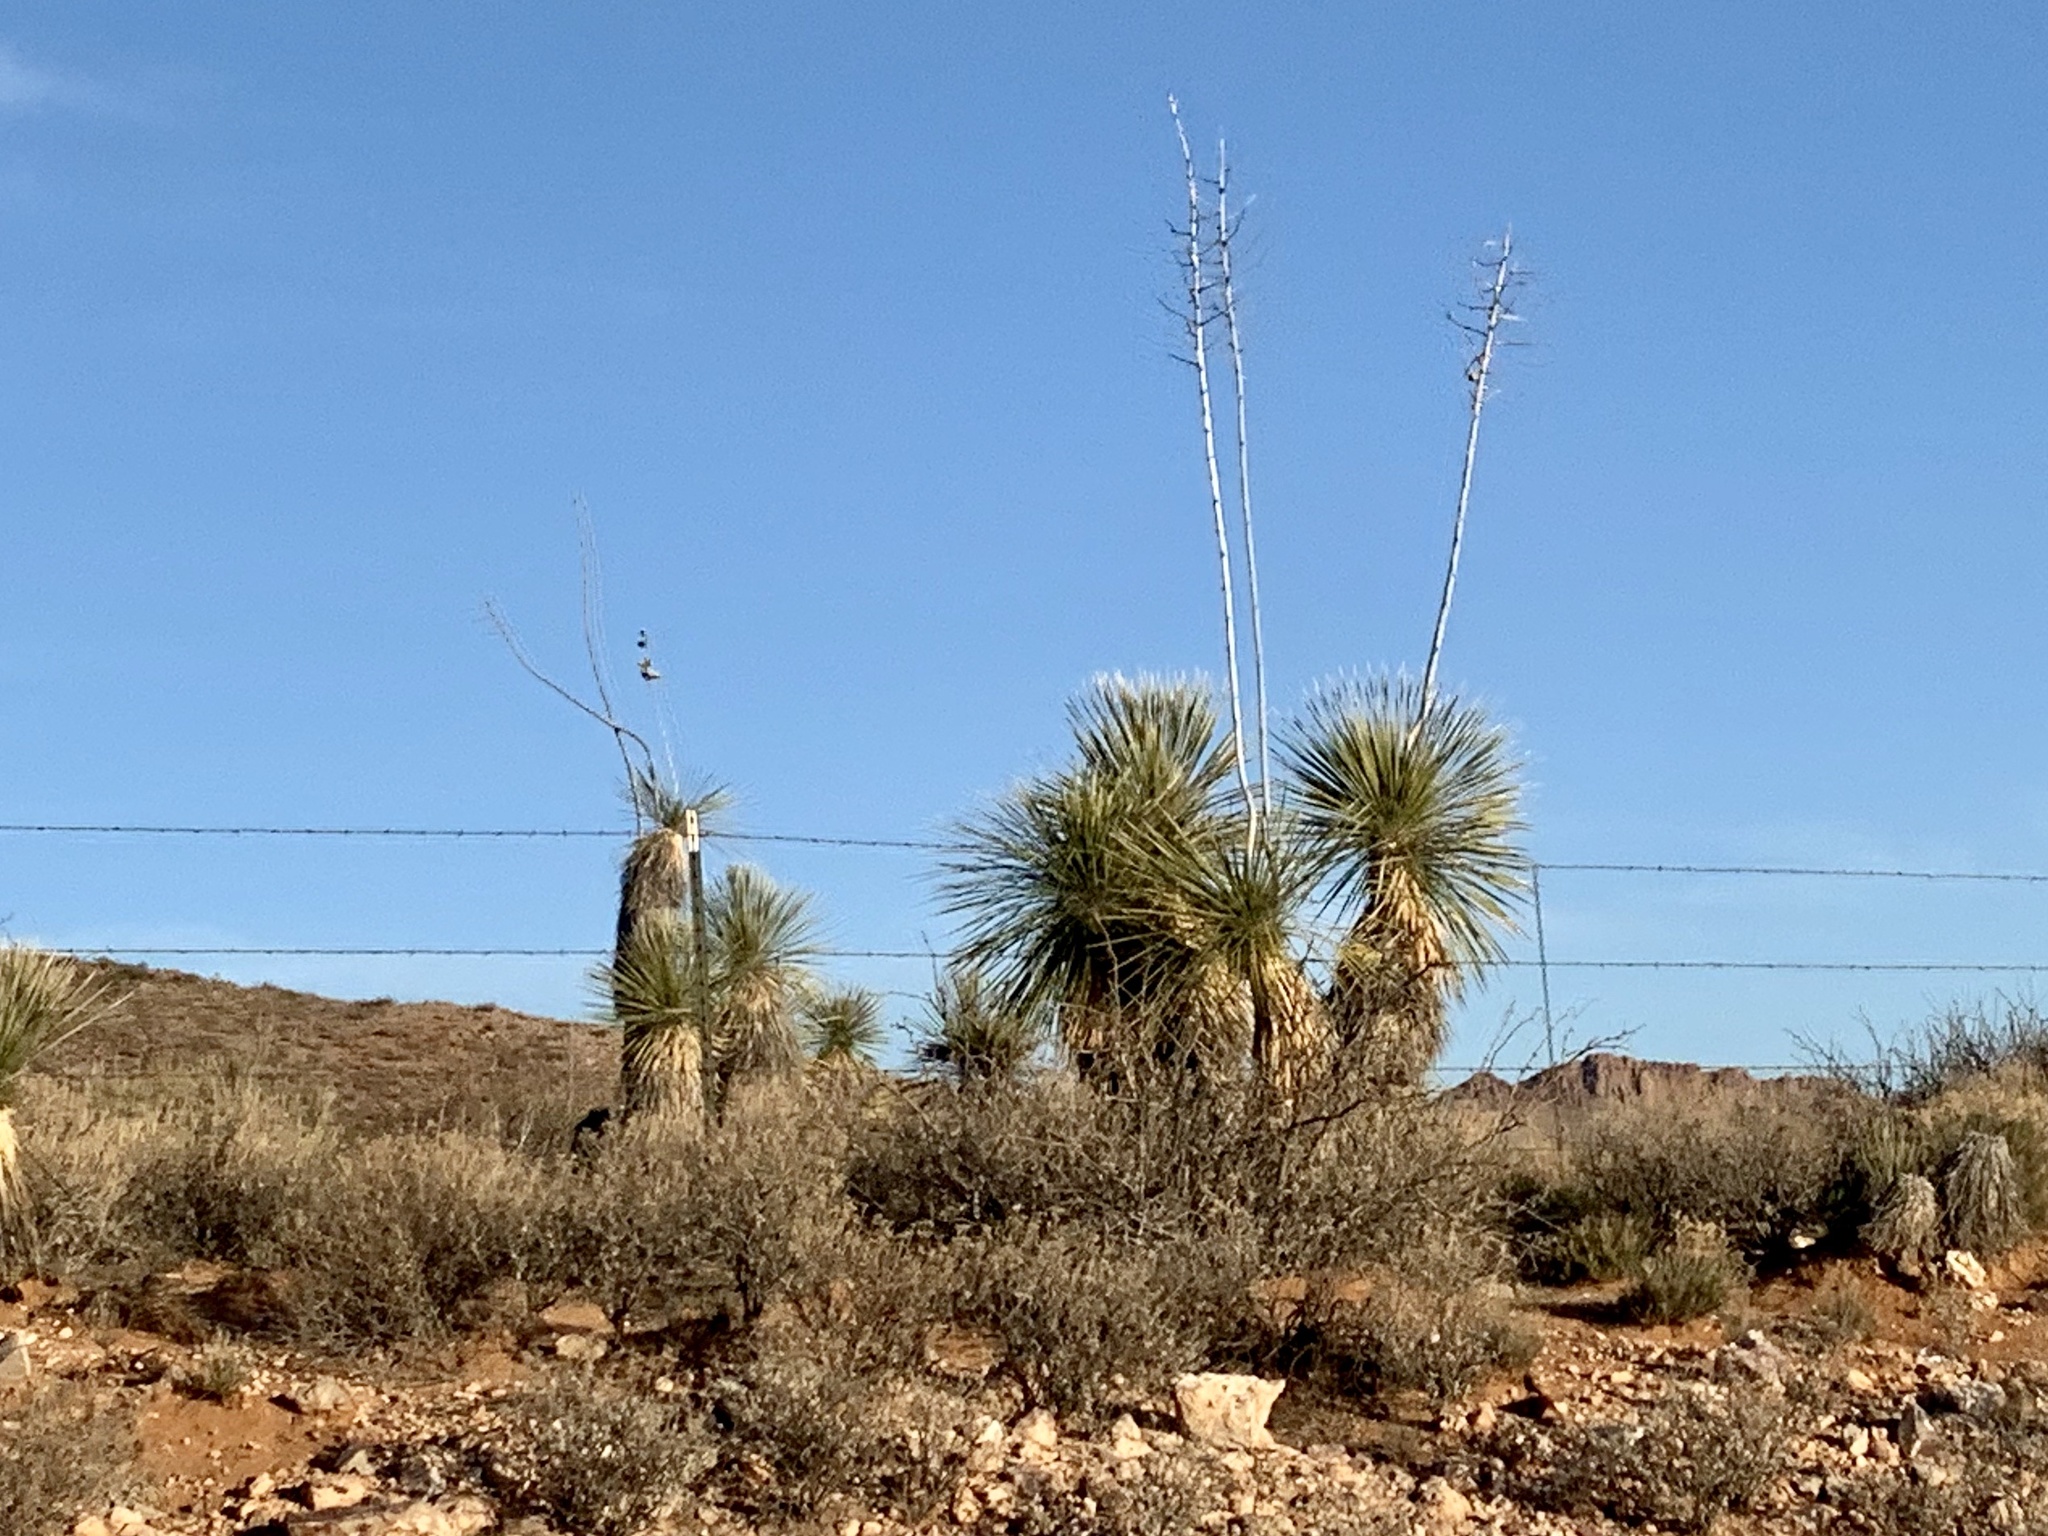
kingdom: Plantae
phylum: Tracheophyta
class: Liliopsida
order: Asparagales
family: Asparagaceae
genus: Yucca
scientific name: Yucca elata
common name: Palmella
